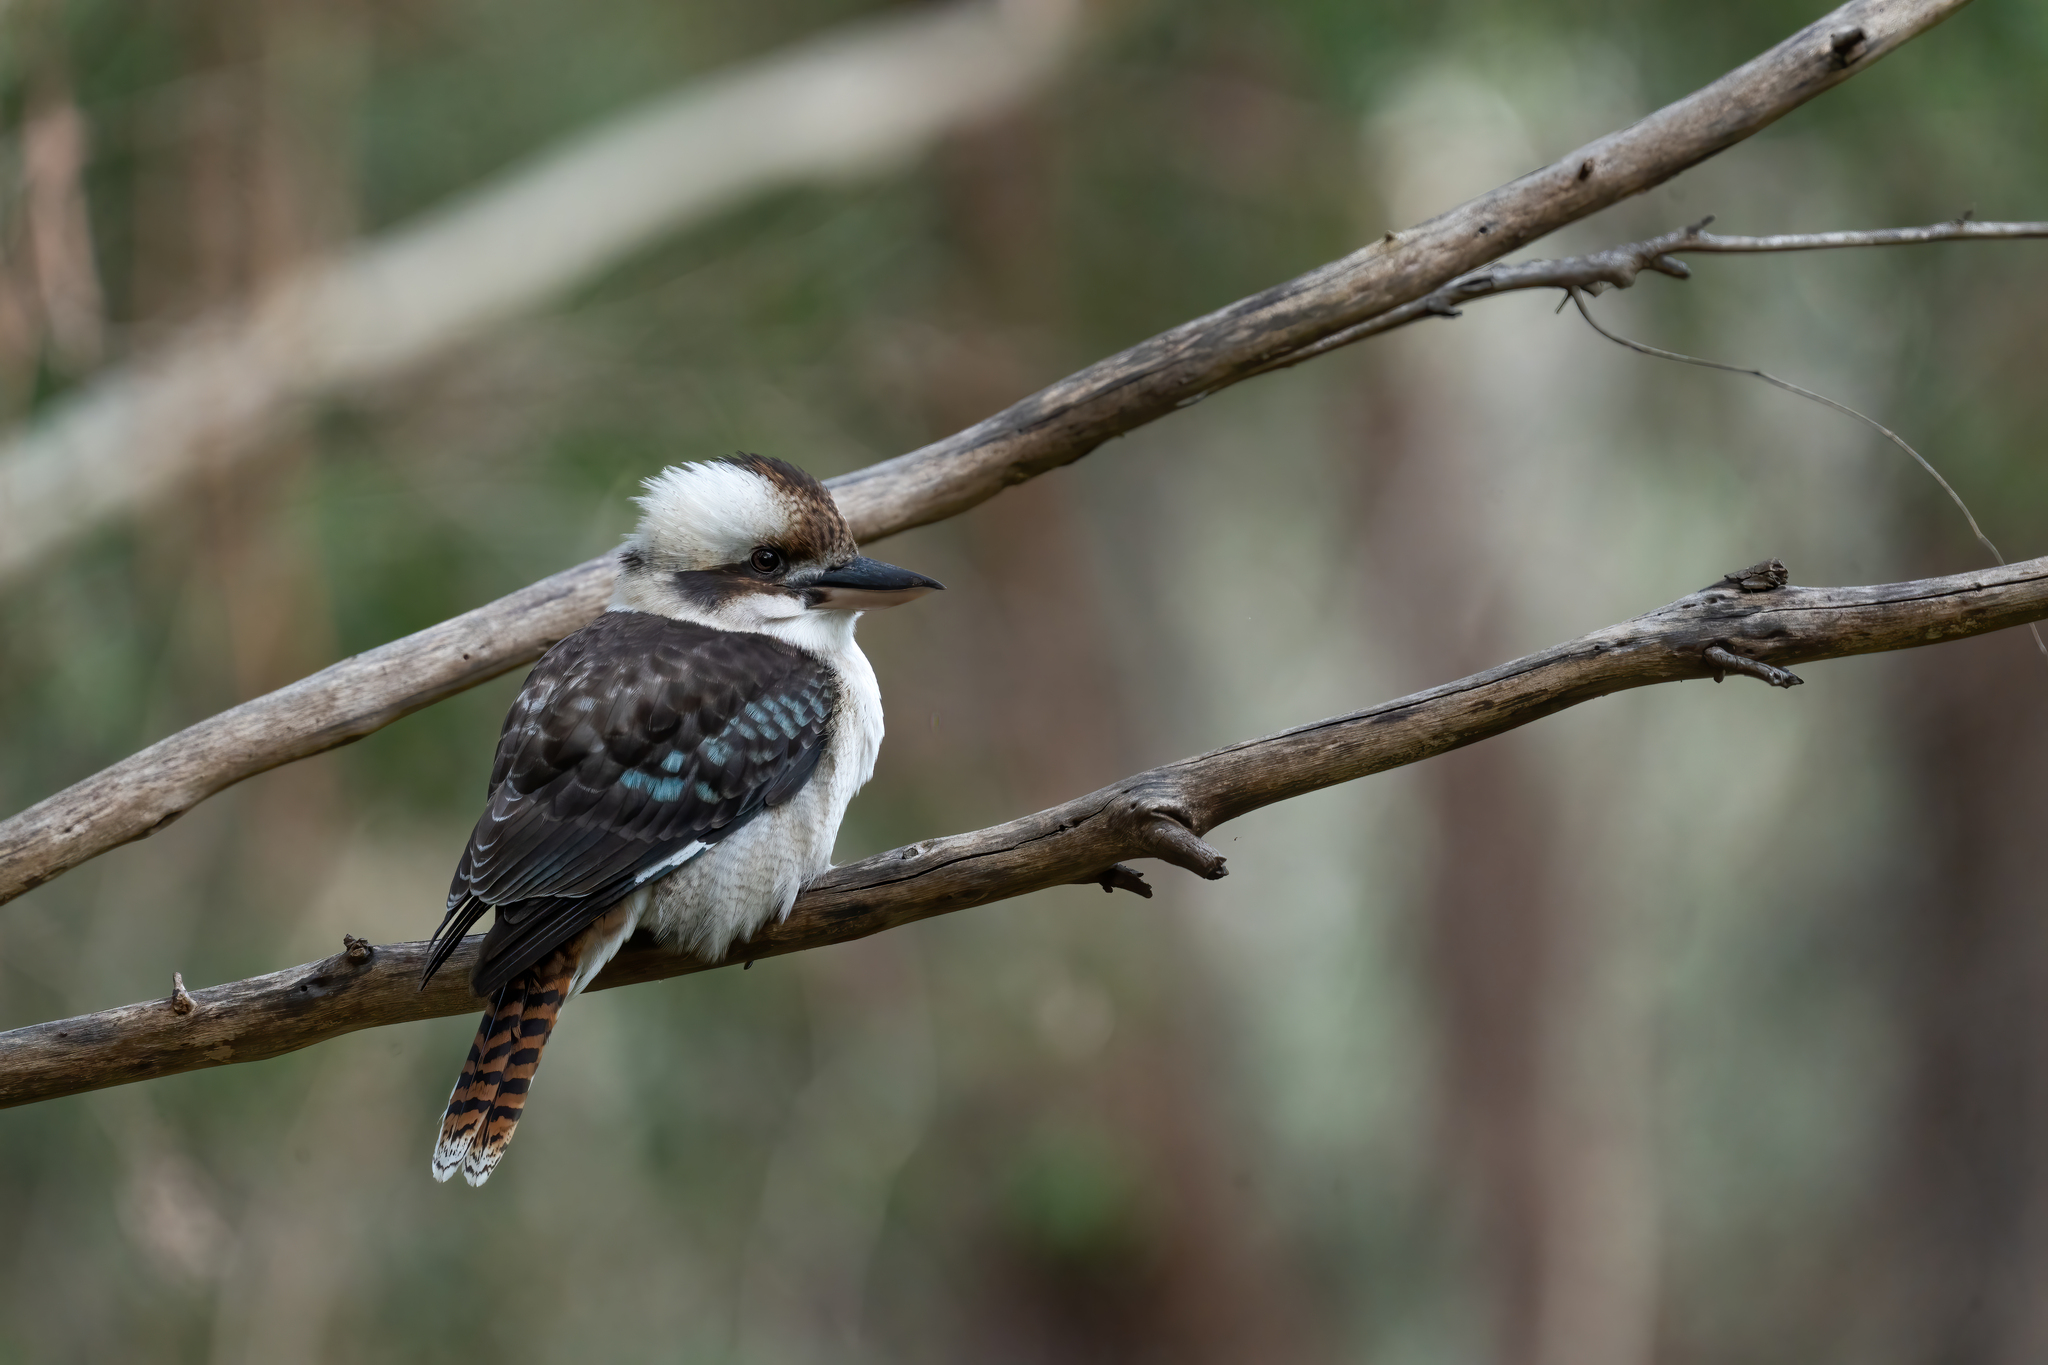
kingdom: Animalia
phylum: Chordata
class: Aves
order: Coraciiformes
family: Alcedinidae
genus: Dacelo
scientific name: Dacelo novaeguineae
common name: Laughing kookaburra
